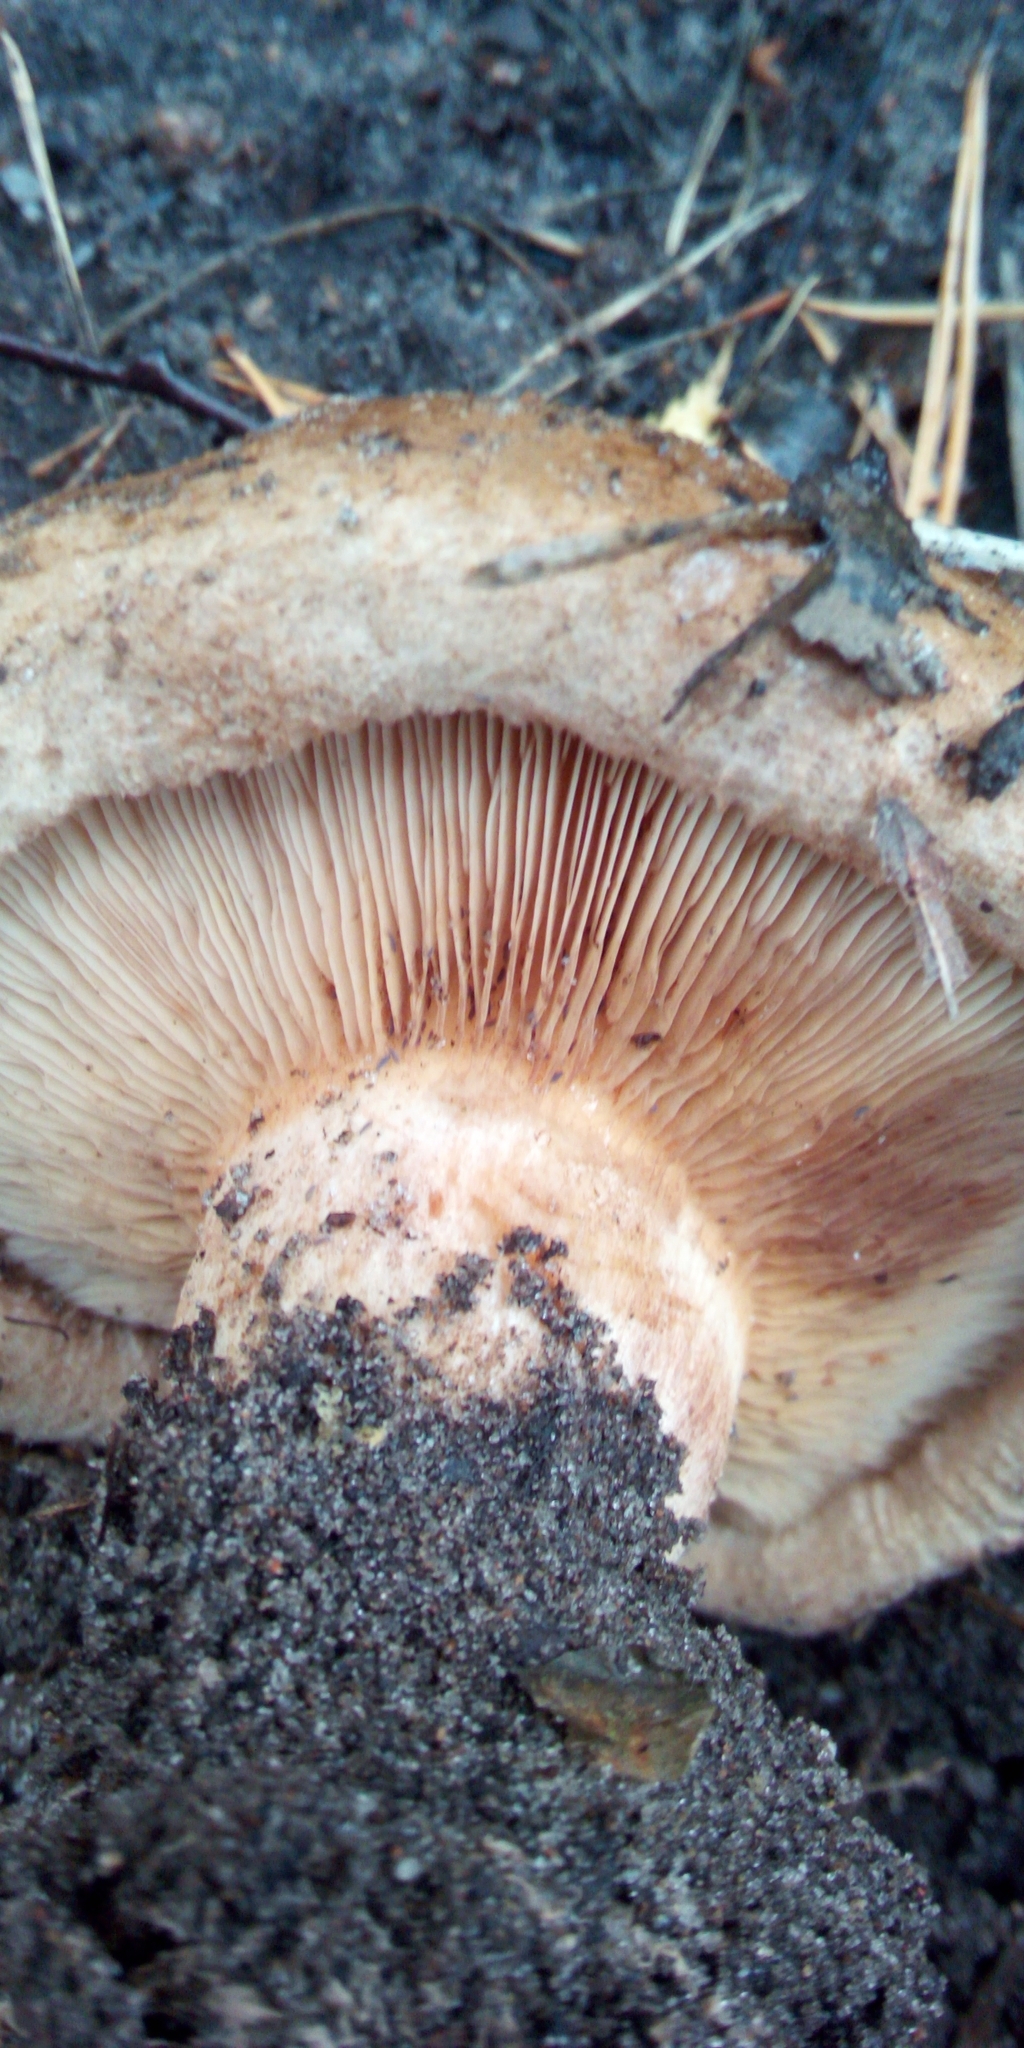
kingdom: Fungi
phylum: Basidiomycota
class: Agaricomycetes
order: Boletales
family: Paxillaceae
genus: Paxillus
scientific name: Paxillus involutus
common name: Brown roll rim
